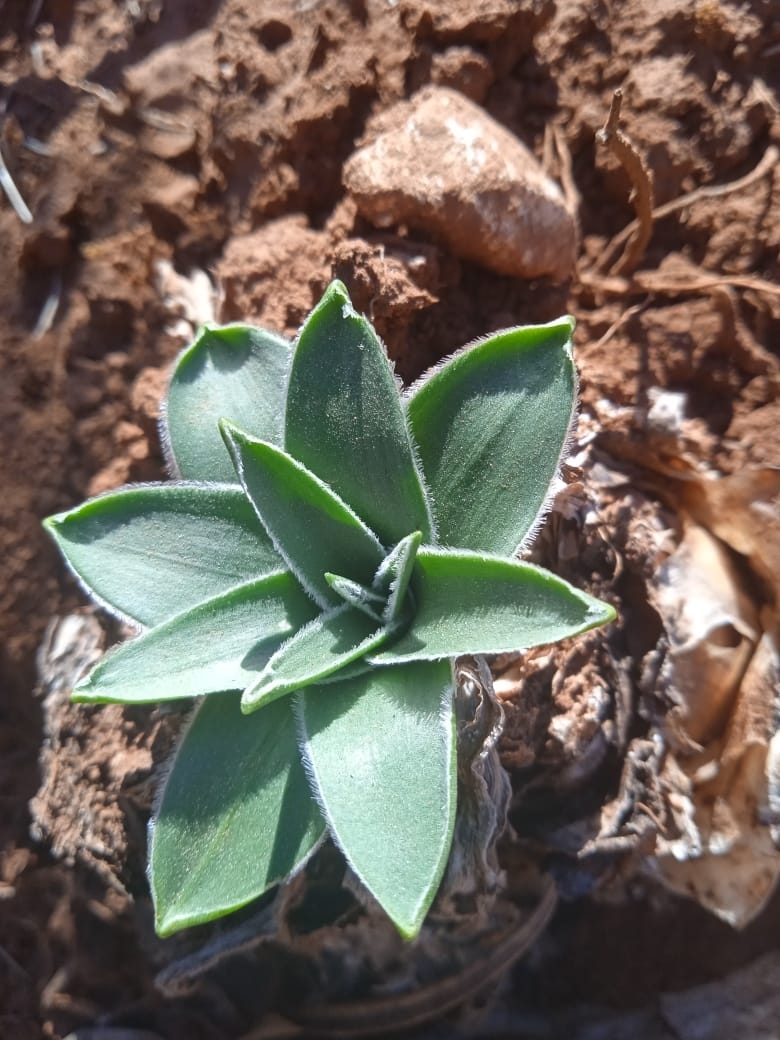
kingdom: Plantae
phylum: Tracheophyta
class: Liliopsida
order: Asparagales
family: Asparagaceae
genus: Scilla
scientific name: Scilla peruviana
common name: Portuguese squill
